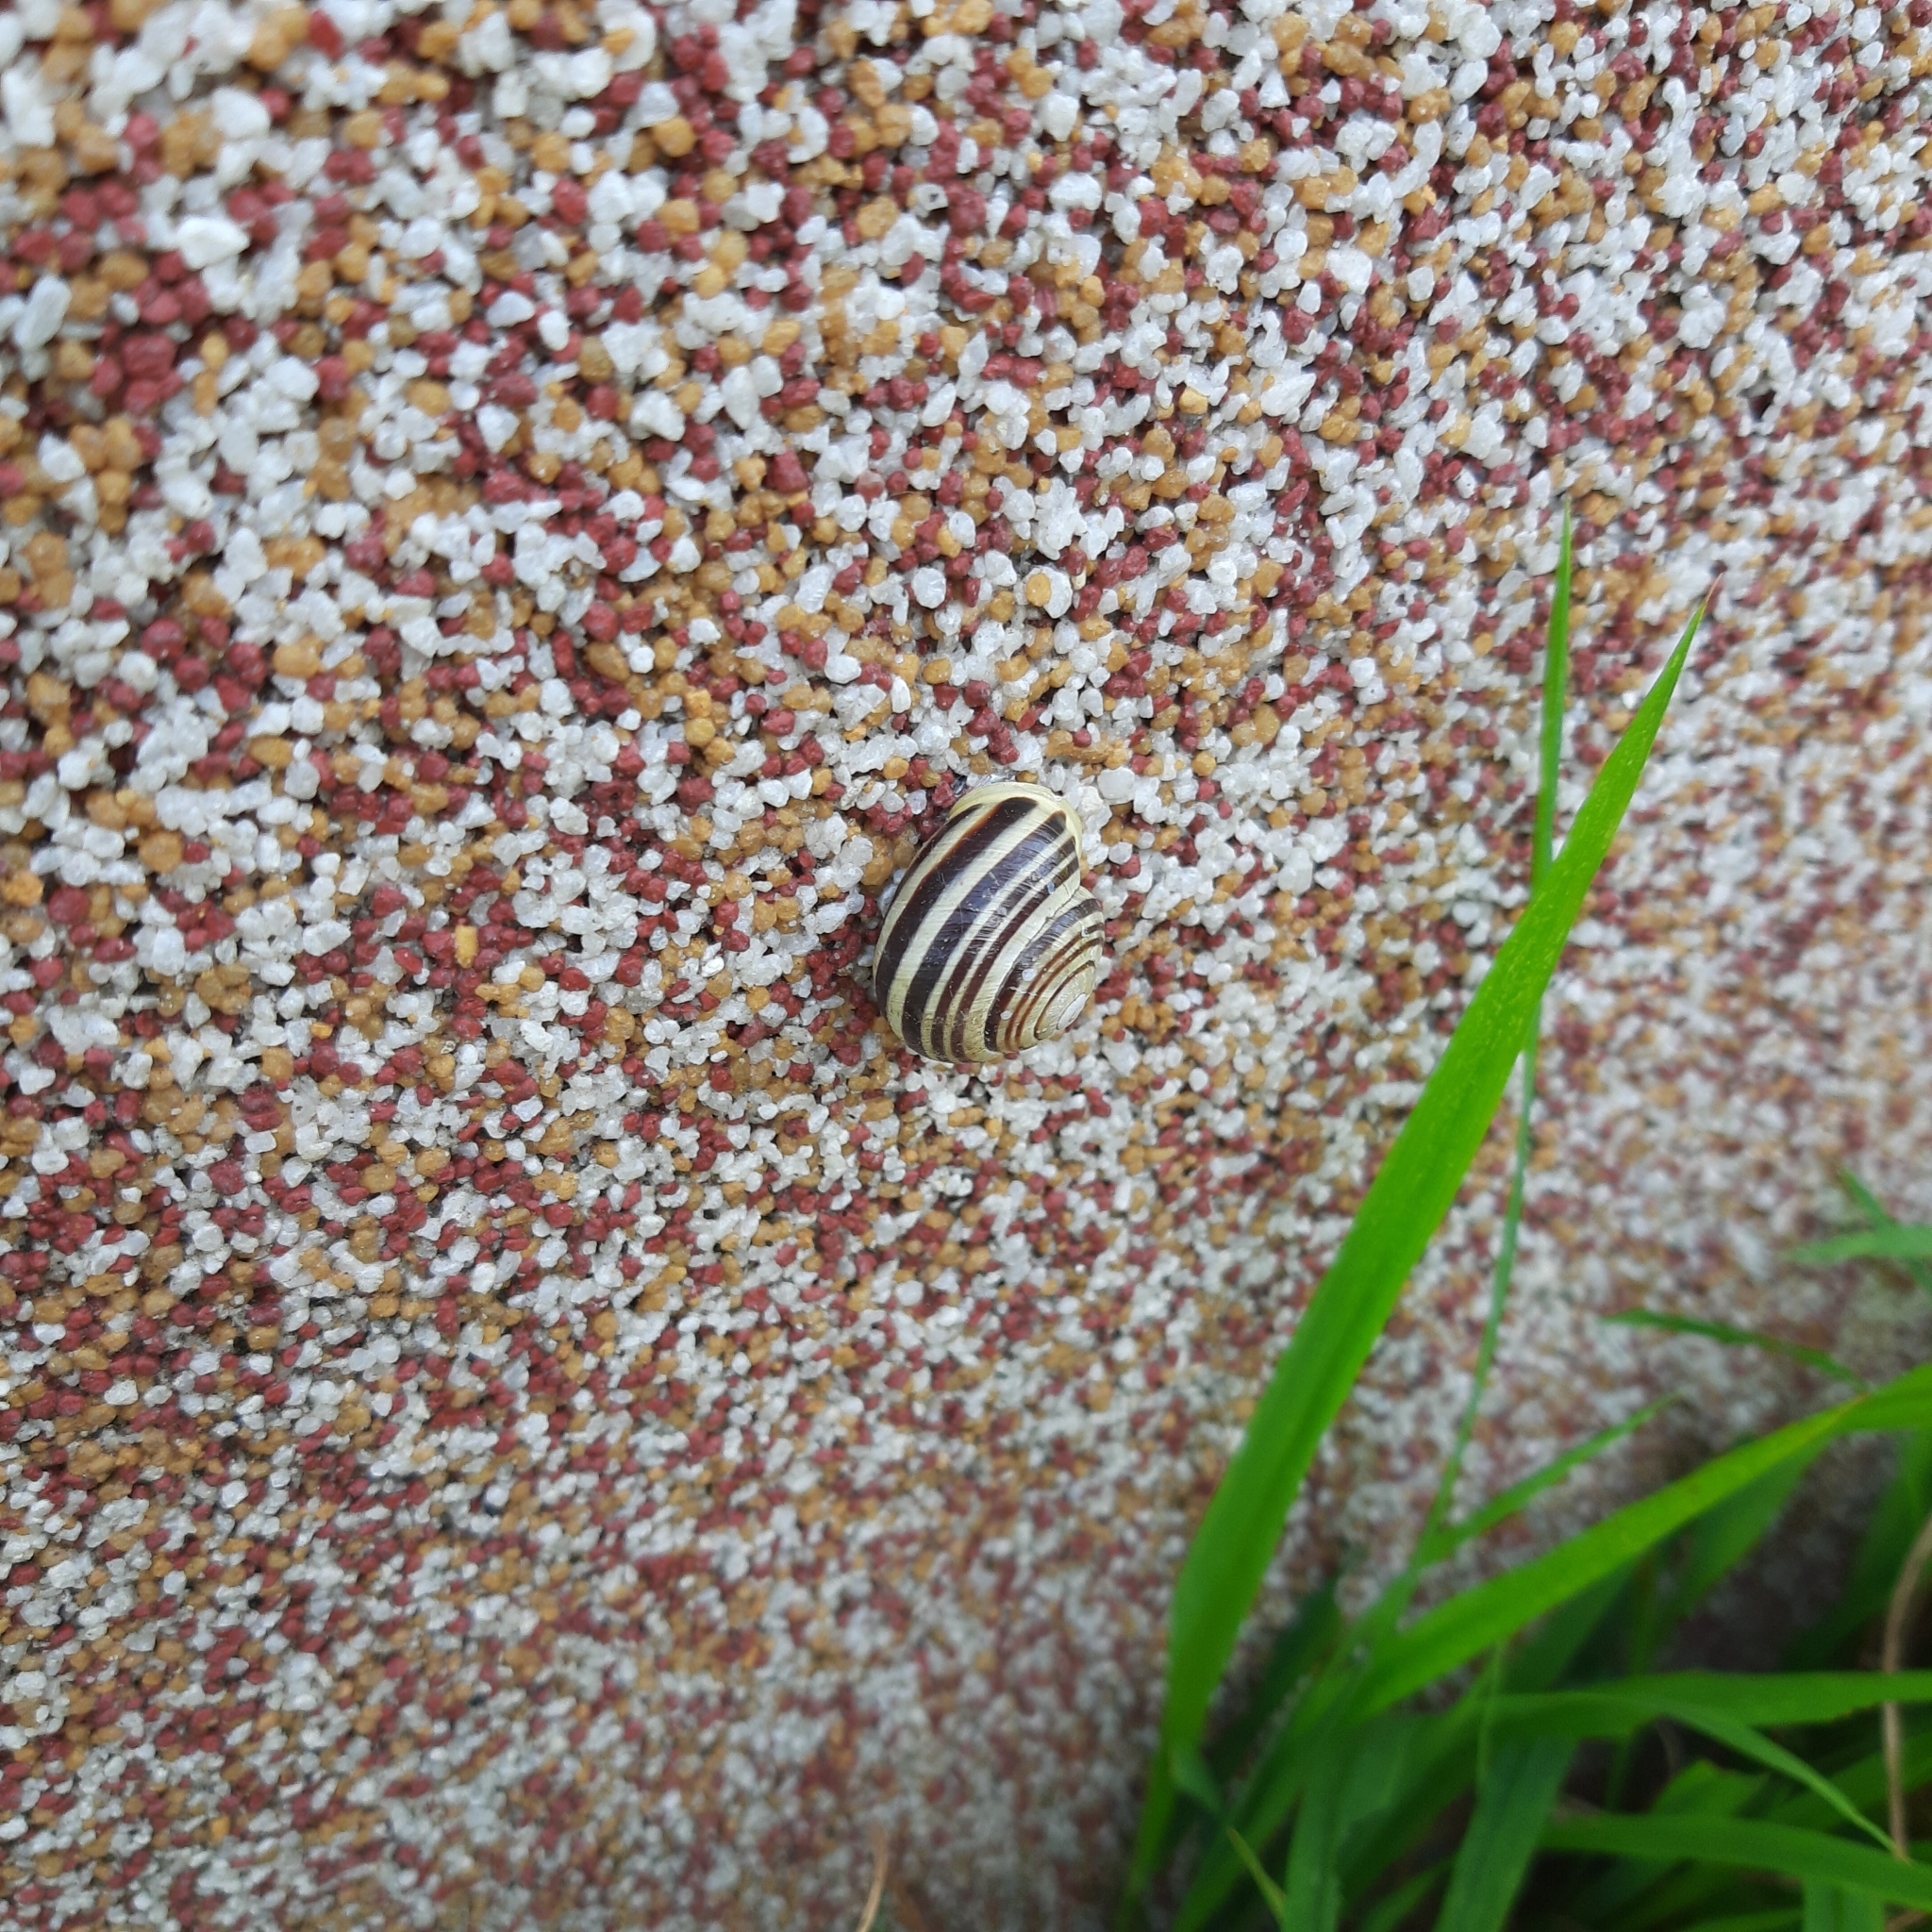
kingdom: Animalia
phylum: Mollusca
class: Gastropoda
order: Stylommatophora
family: Helicidae
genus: Cepaea
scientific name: Cepaea hortensis
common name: White-lip gardensnail
